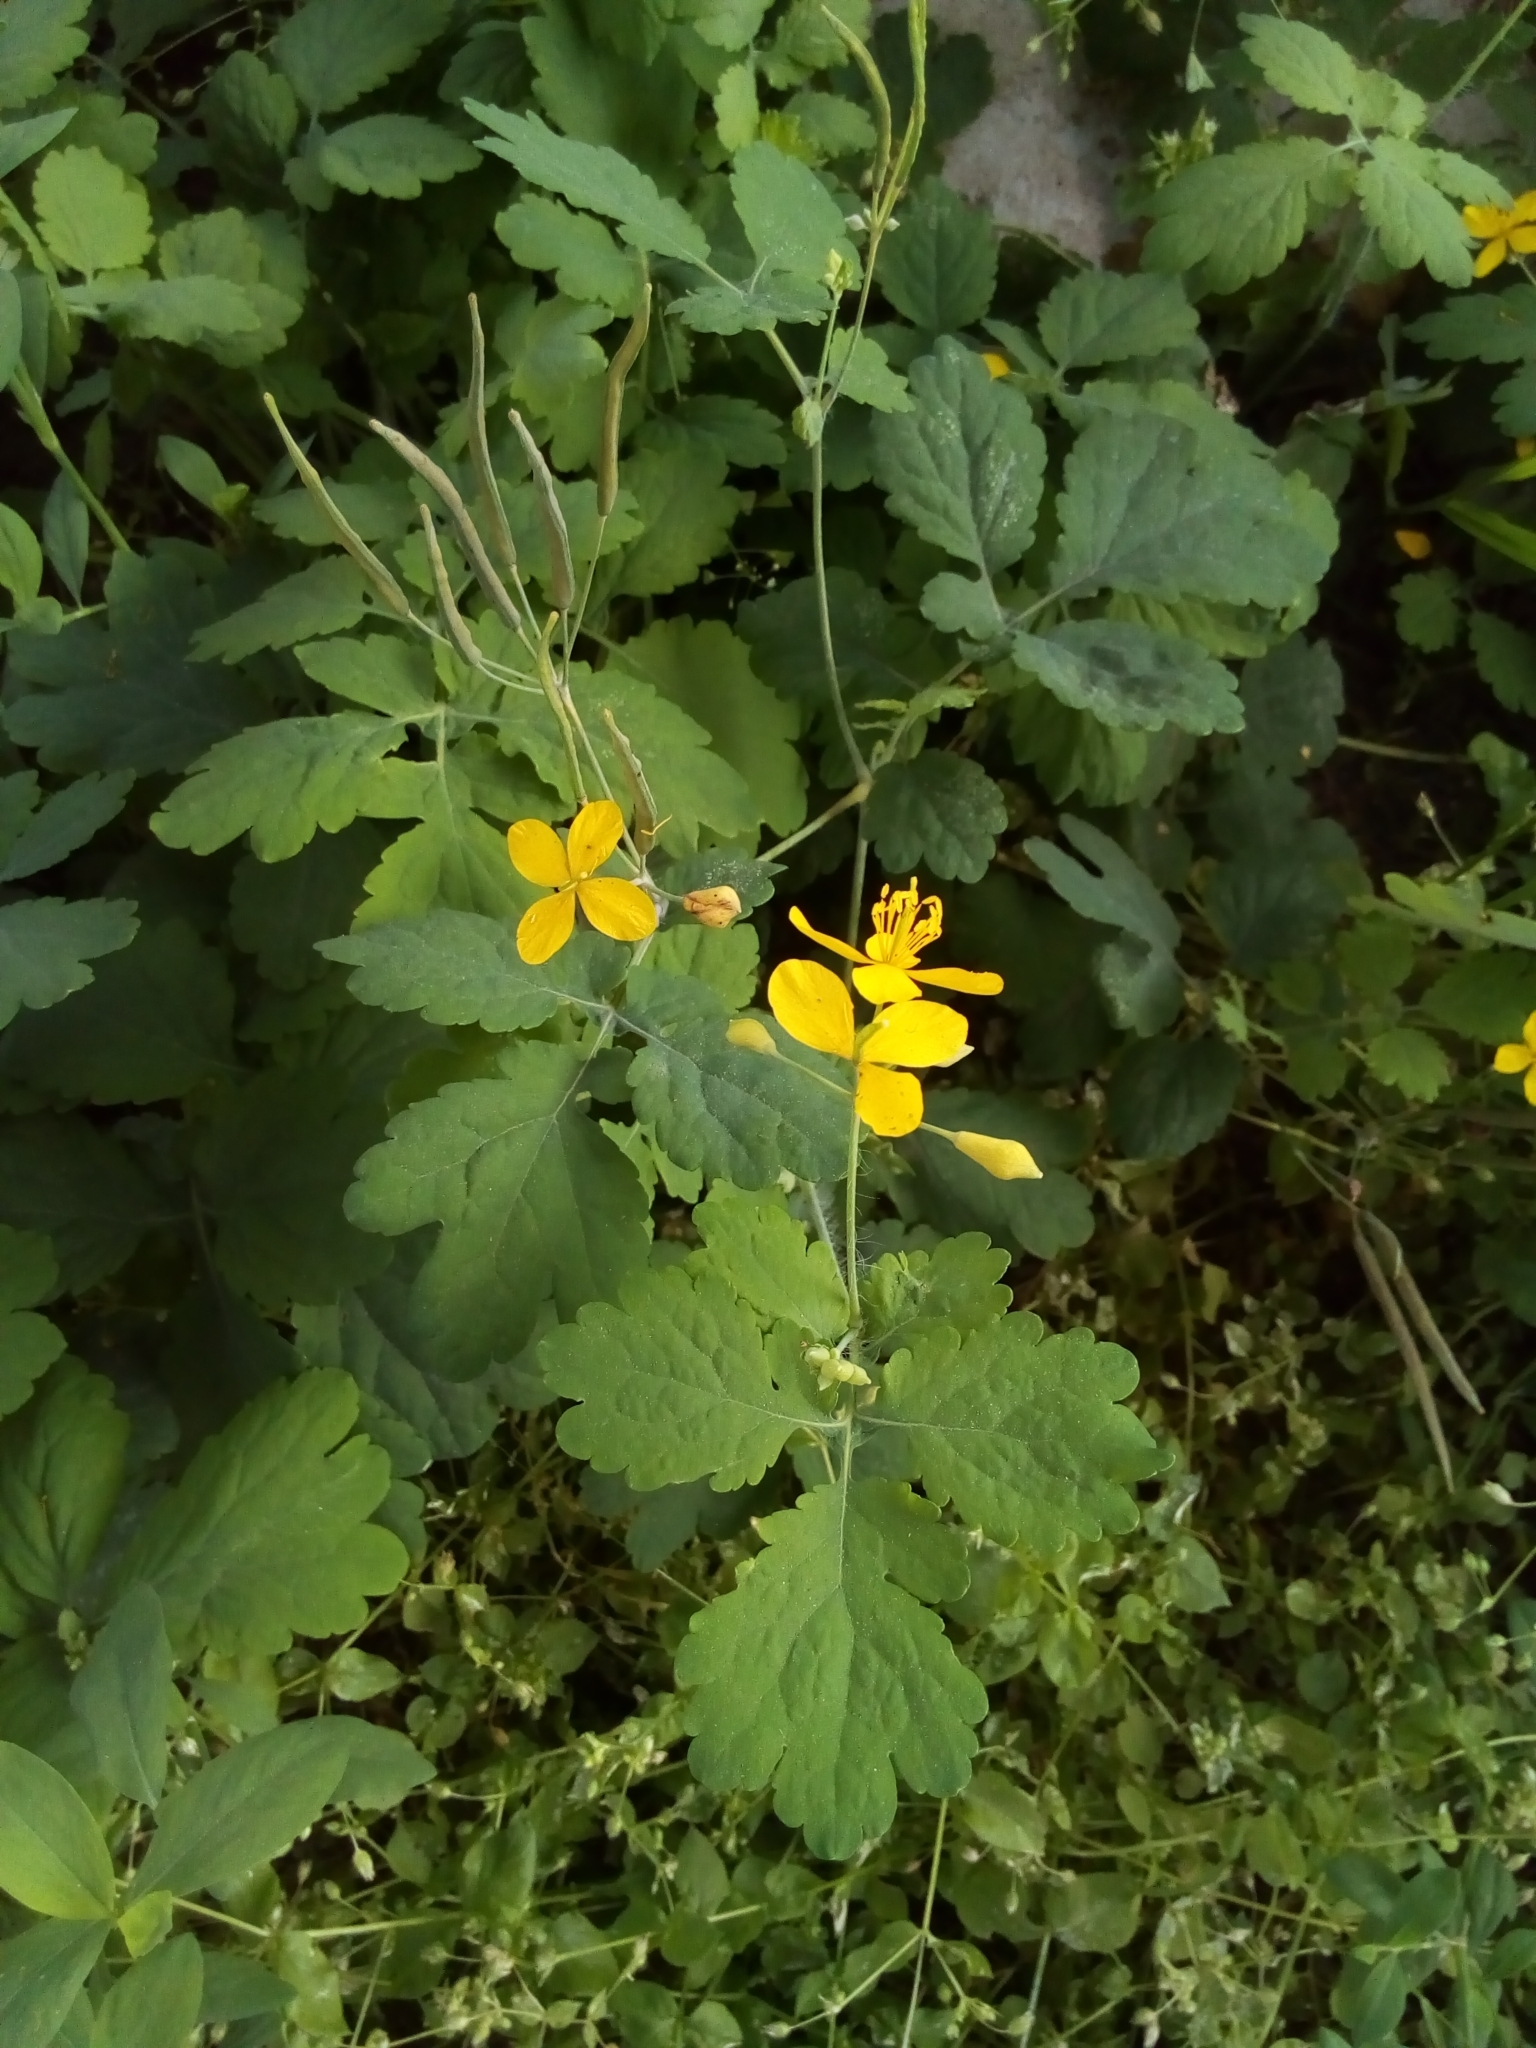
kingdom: Plantae
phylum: Tracheophyta
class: Magnoliopsida
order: Ranunculales
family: Papaveraceae
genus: Chelidonium
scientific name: Chelidonium majus
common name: Greater celandine
